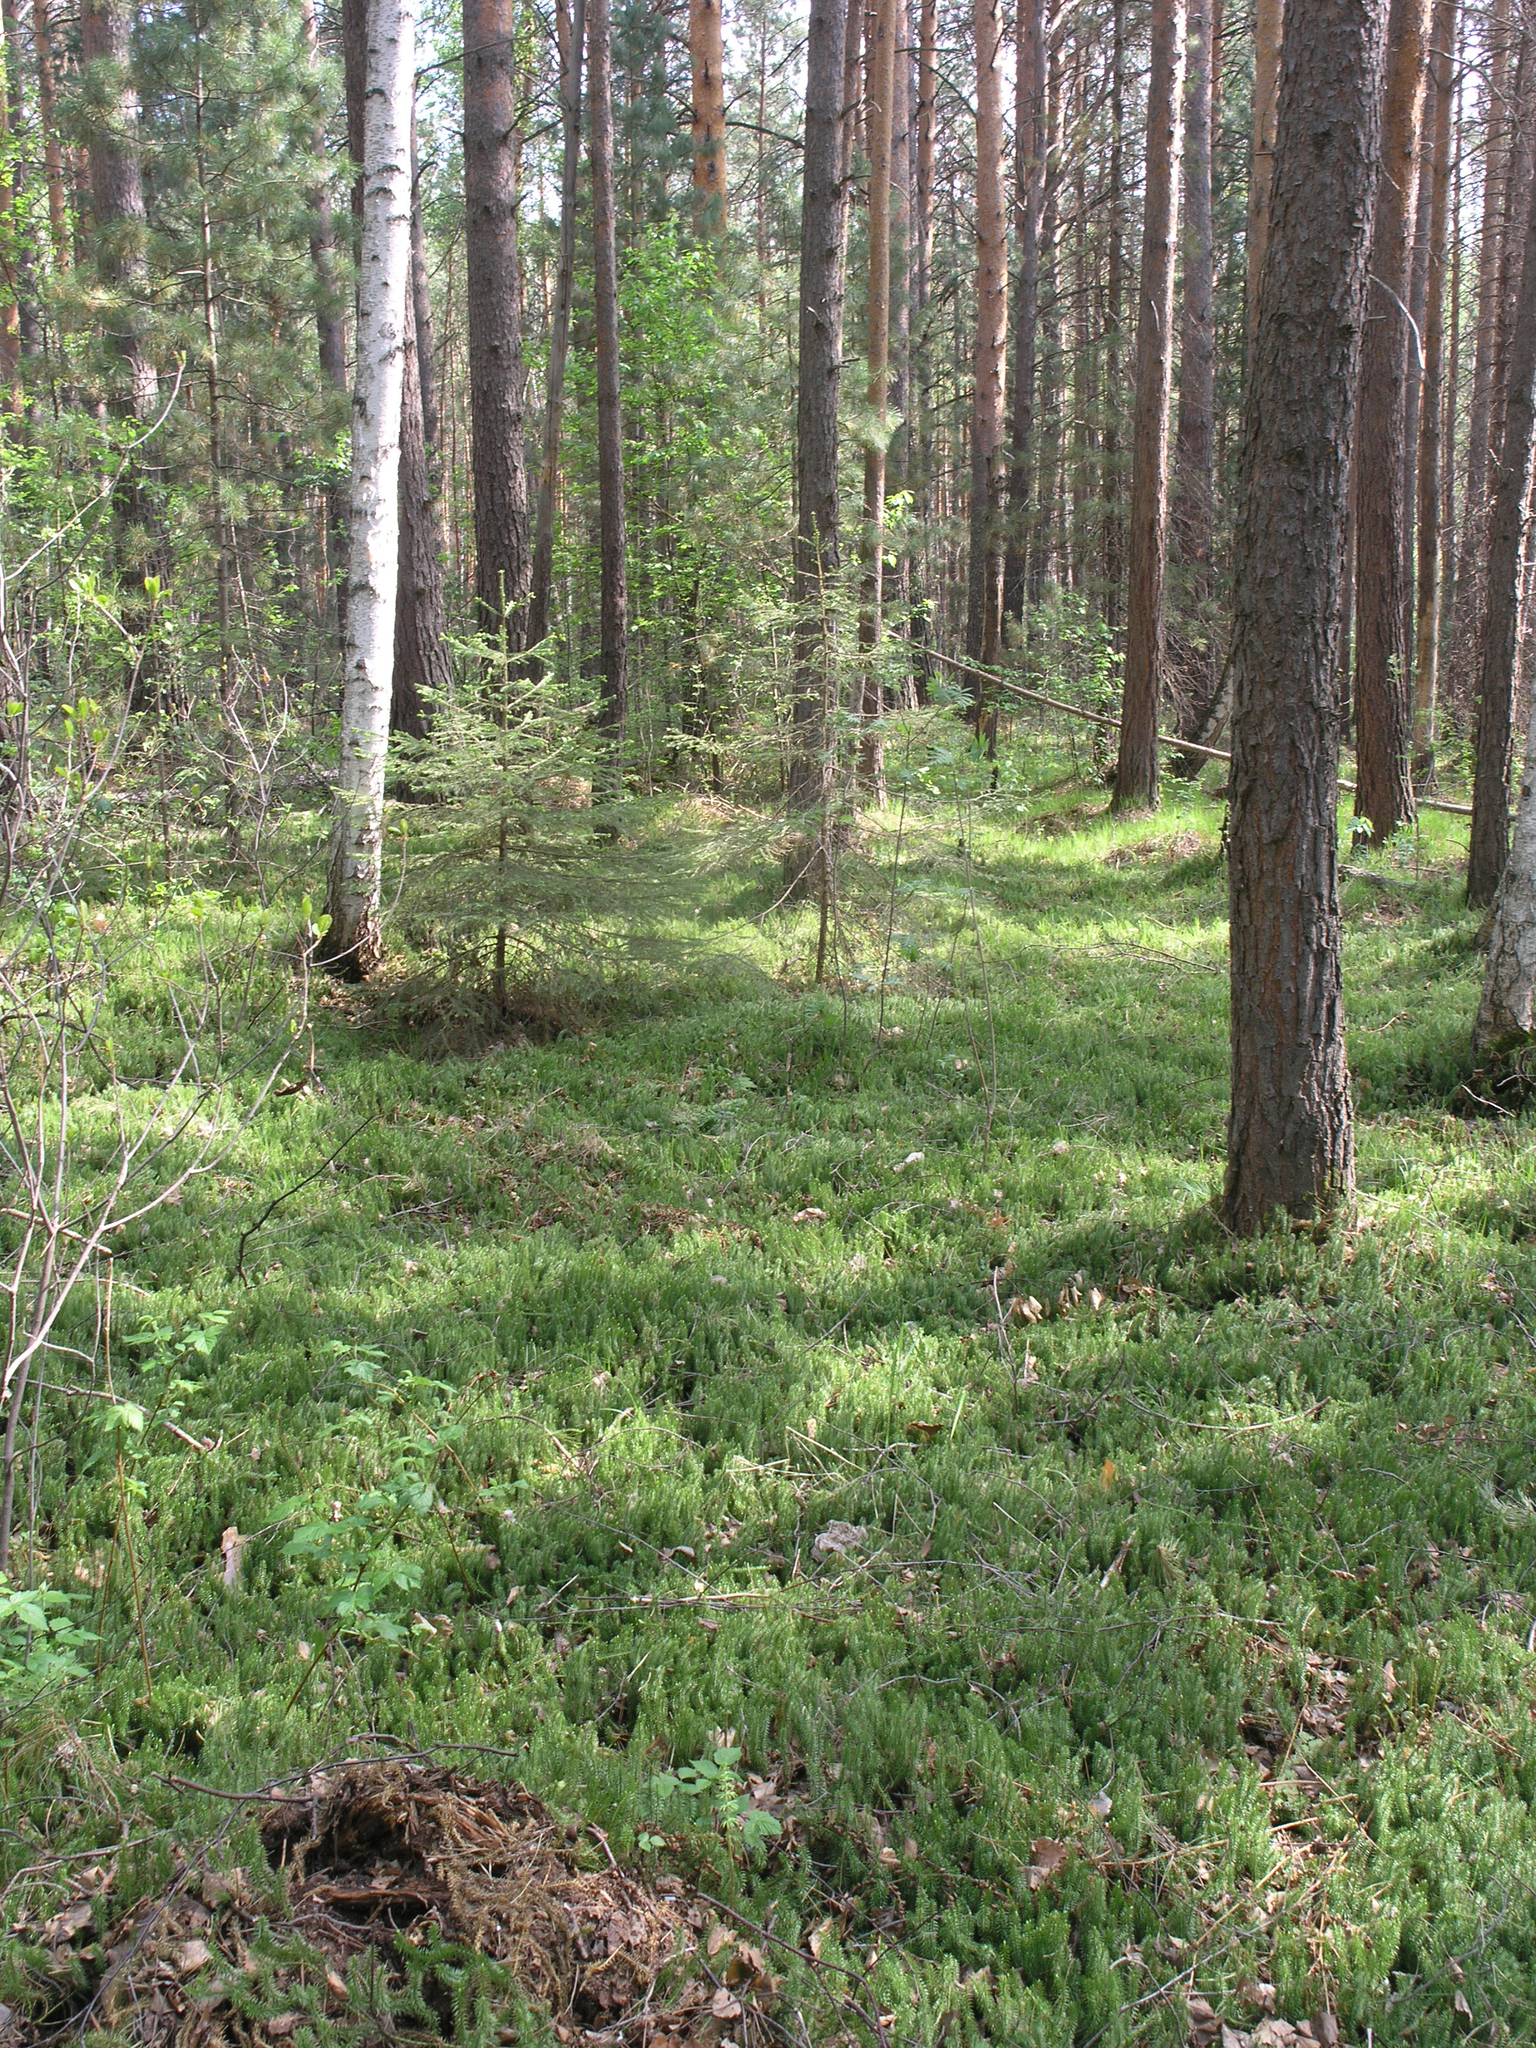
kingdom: Plantae
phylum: Tracheophyta
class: Pinopsida
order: Pinales
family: Pinaceae
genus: Pinus
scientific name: Pinus sylvestris
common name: Scots pine
